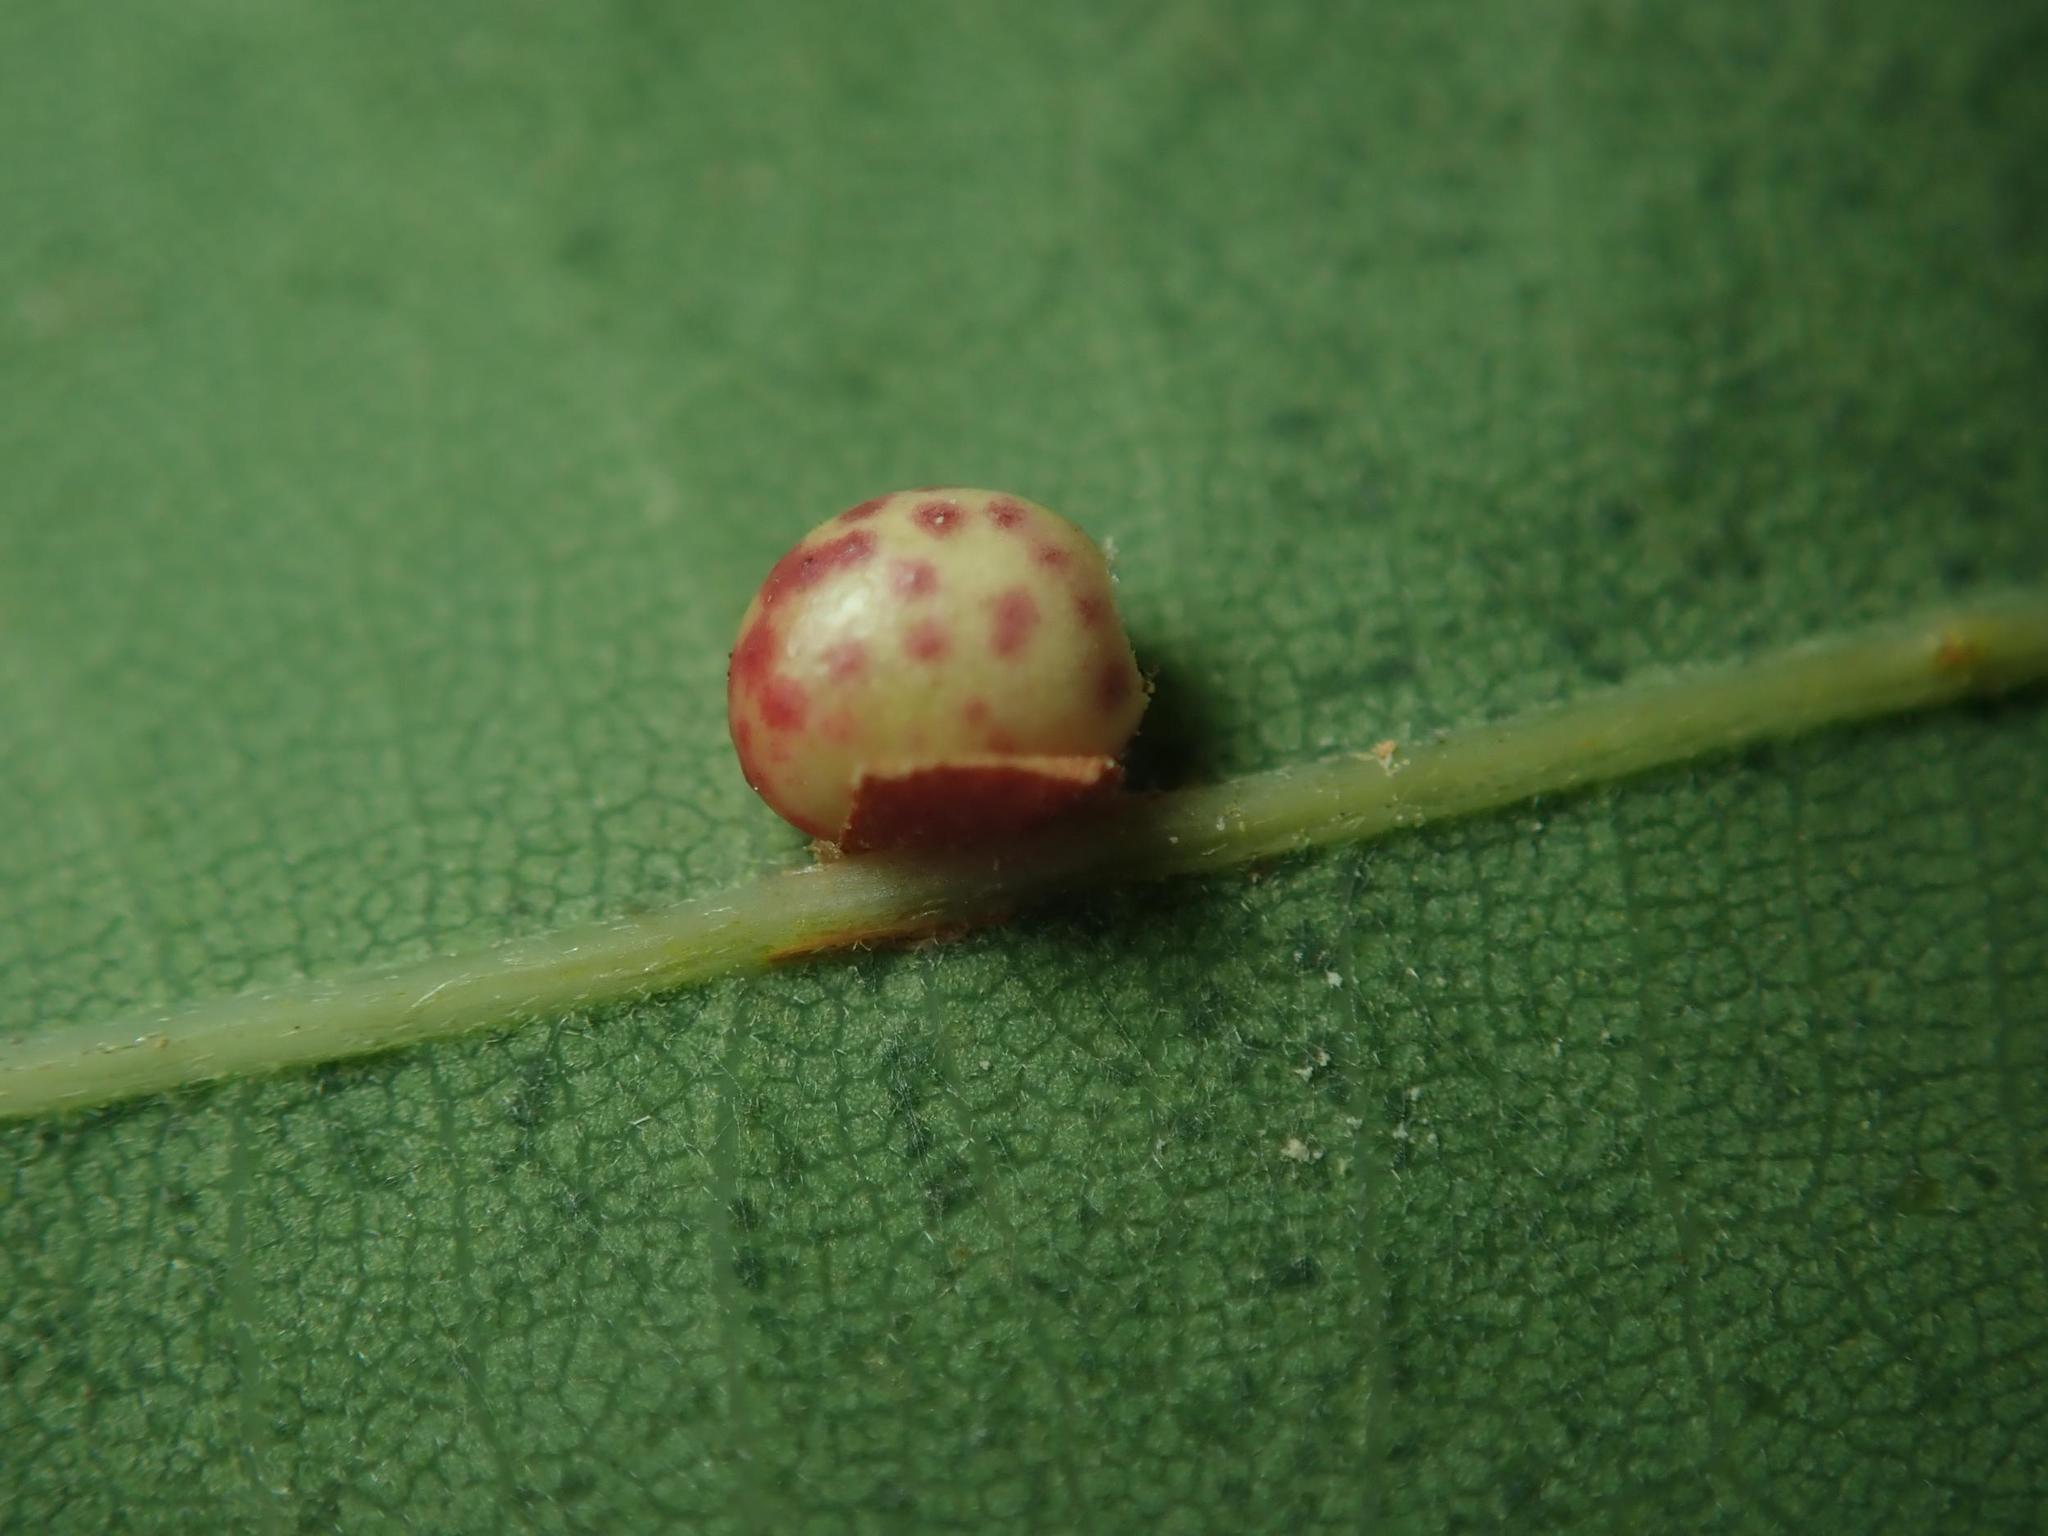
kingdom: Animalia
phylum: Arthropoda
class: Insecta
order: Hymenoptera
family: Cynipidae
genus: Neuroterus
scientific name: Neuroterus anthracinus
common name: Oyster gall
